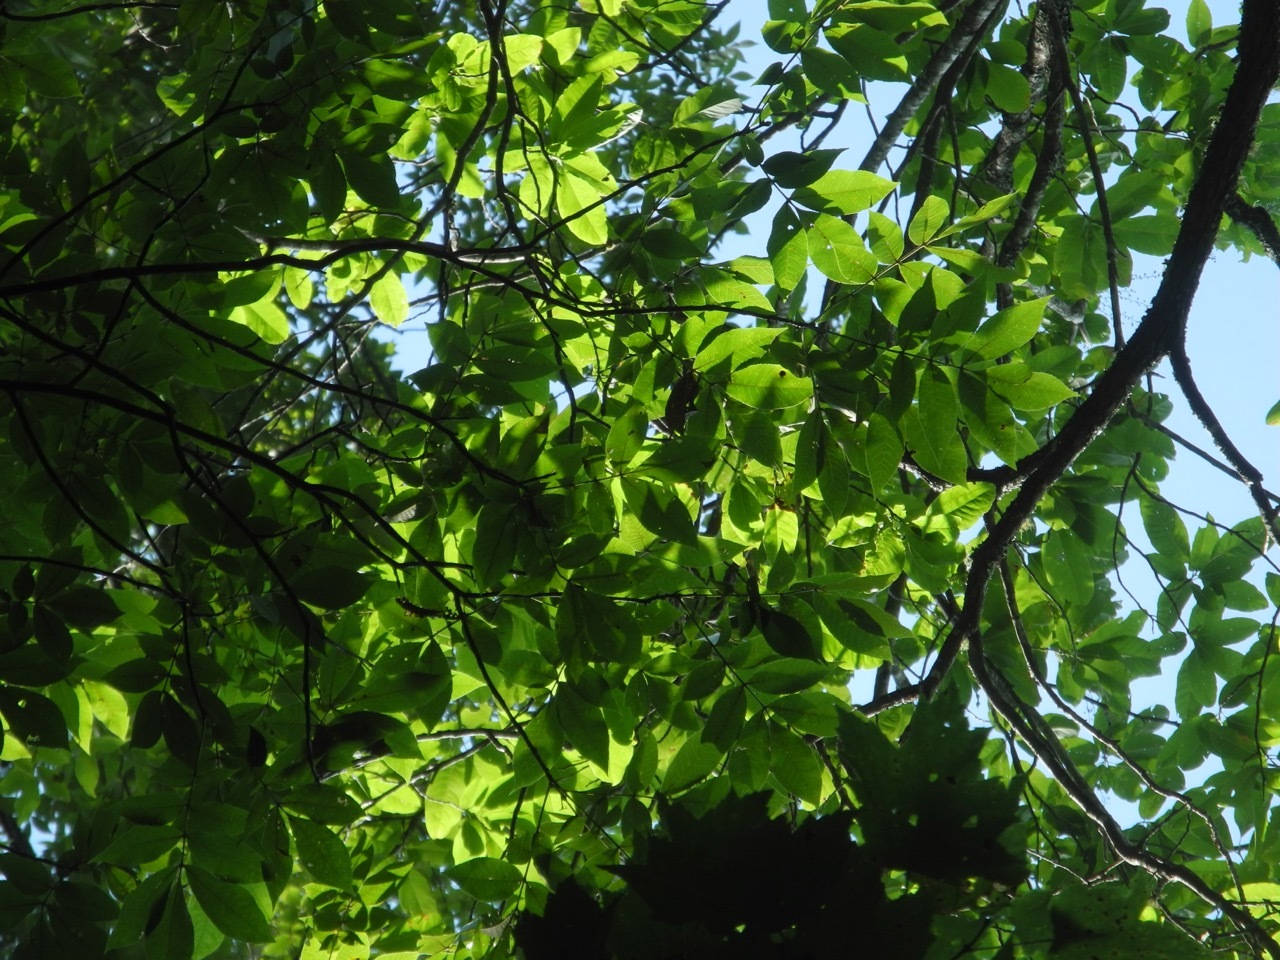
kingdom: Plantae
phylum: Tracheophyta
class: Magnoliopsida
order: Fagales
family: Juglandaceae
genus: Carya
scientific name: Carya alba
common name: Mockernut hickory
